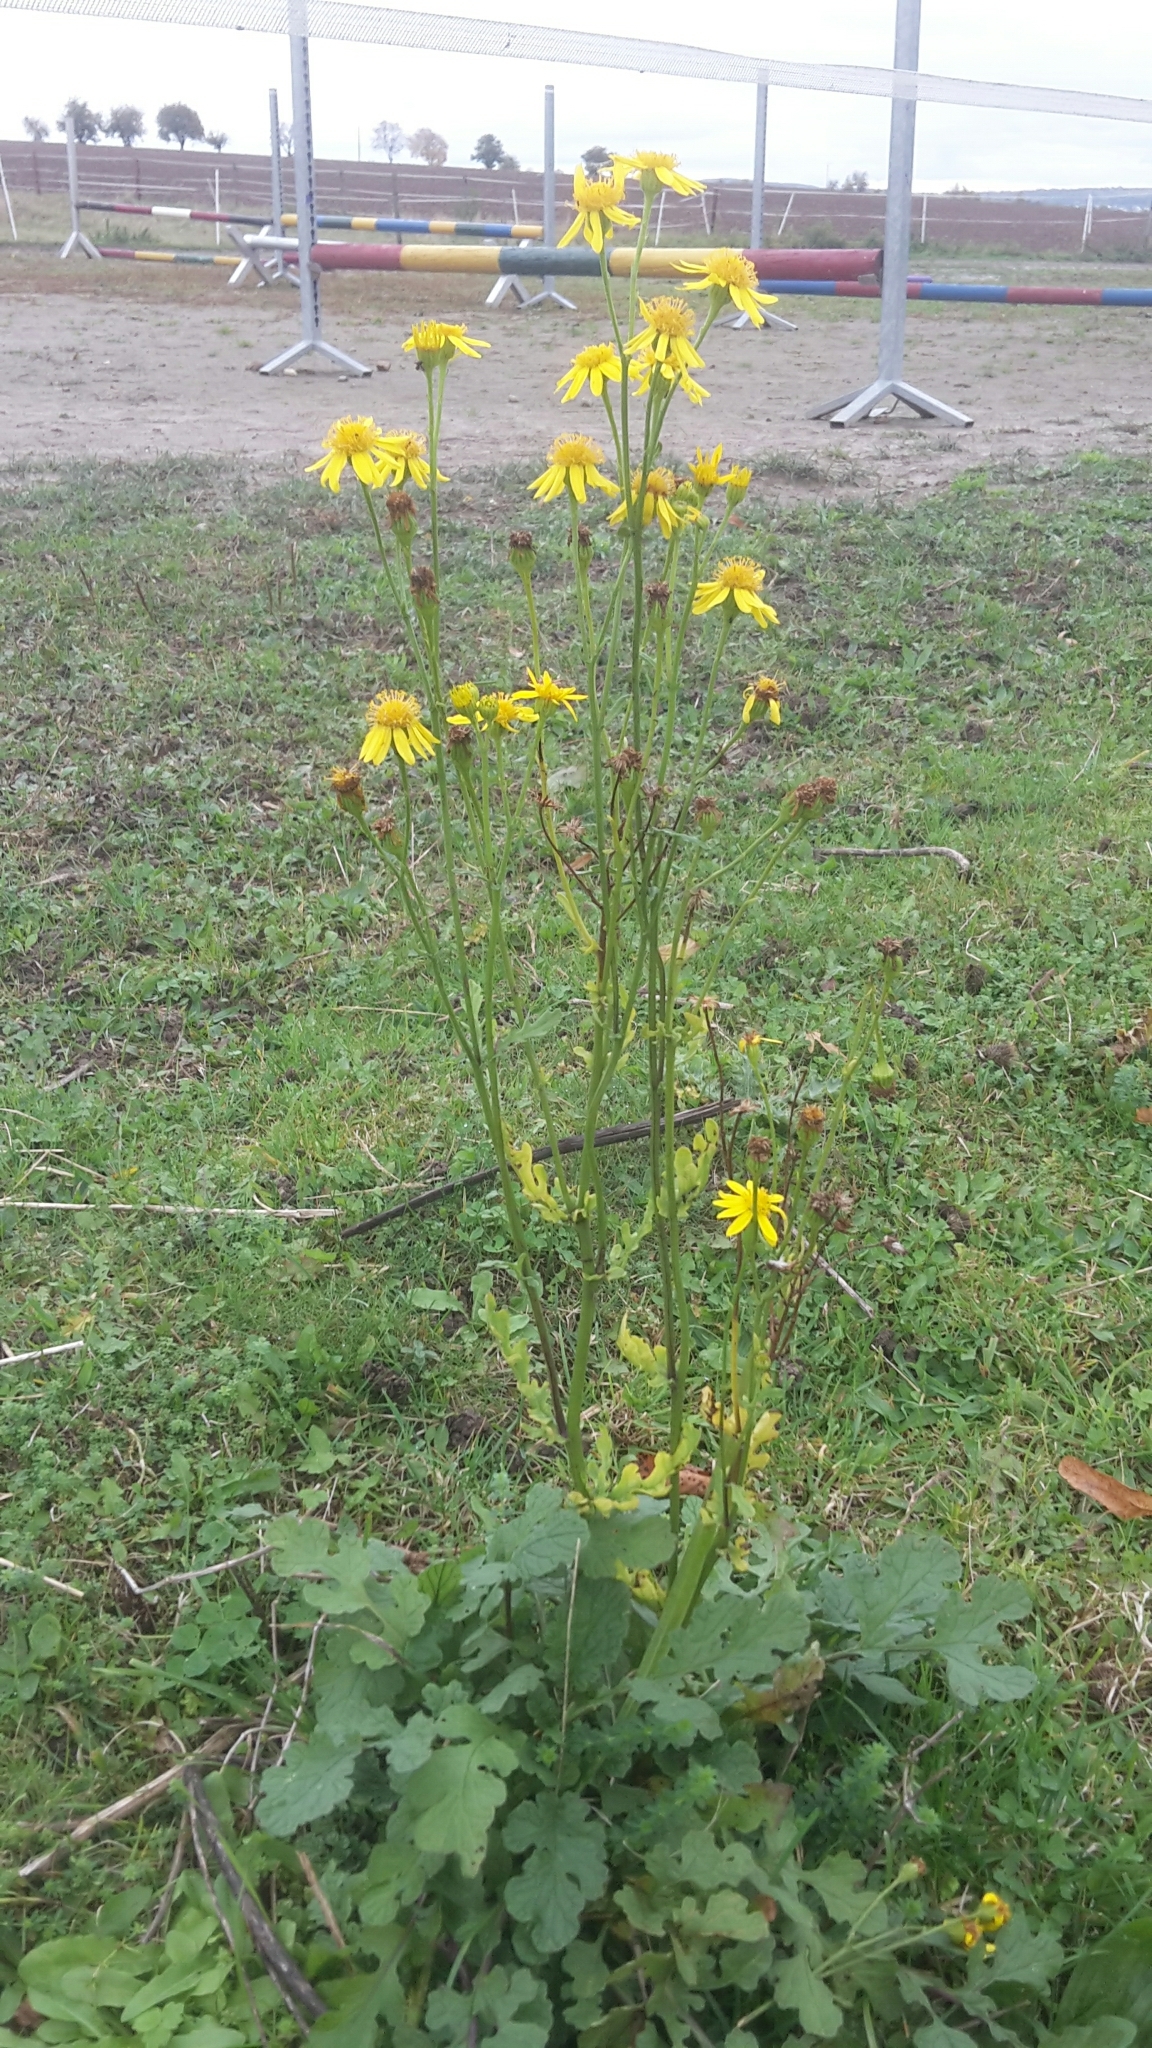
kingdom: Plantae
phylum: Tracheophyta
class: Magnoliopsida
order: Asterales
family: Asteraceae
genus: Jacobaea
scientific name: Jacobaea aquatica
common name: Water ragwort
